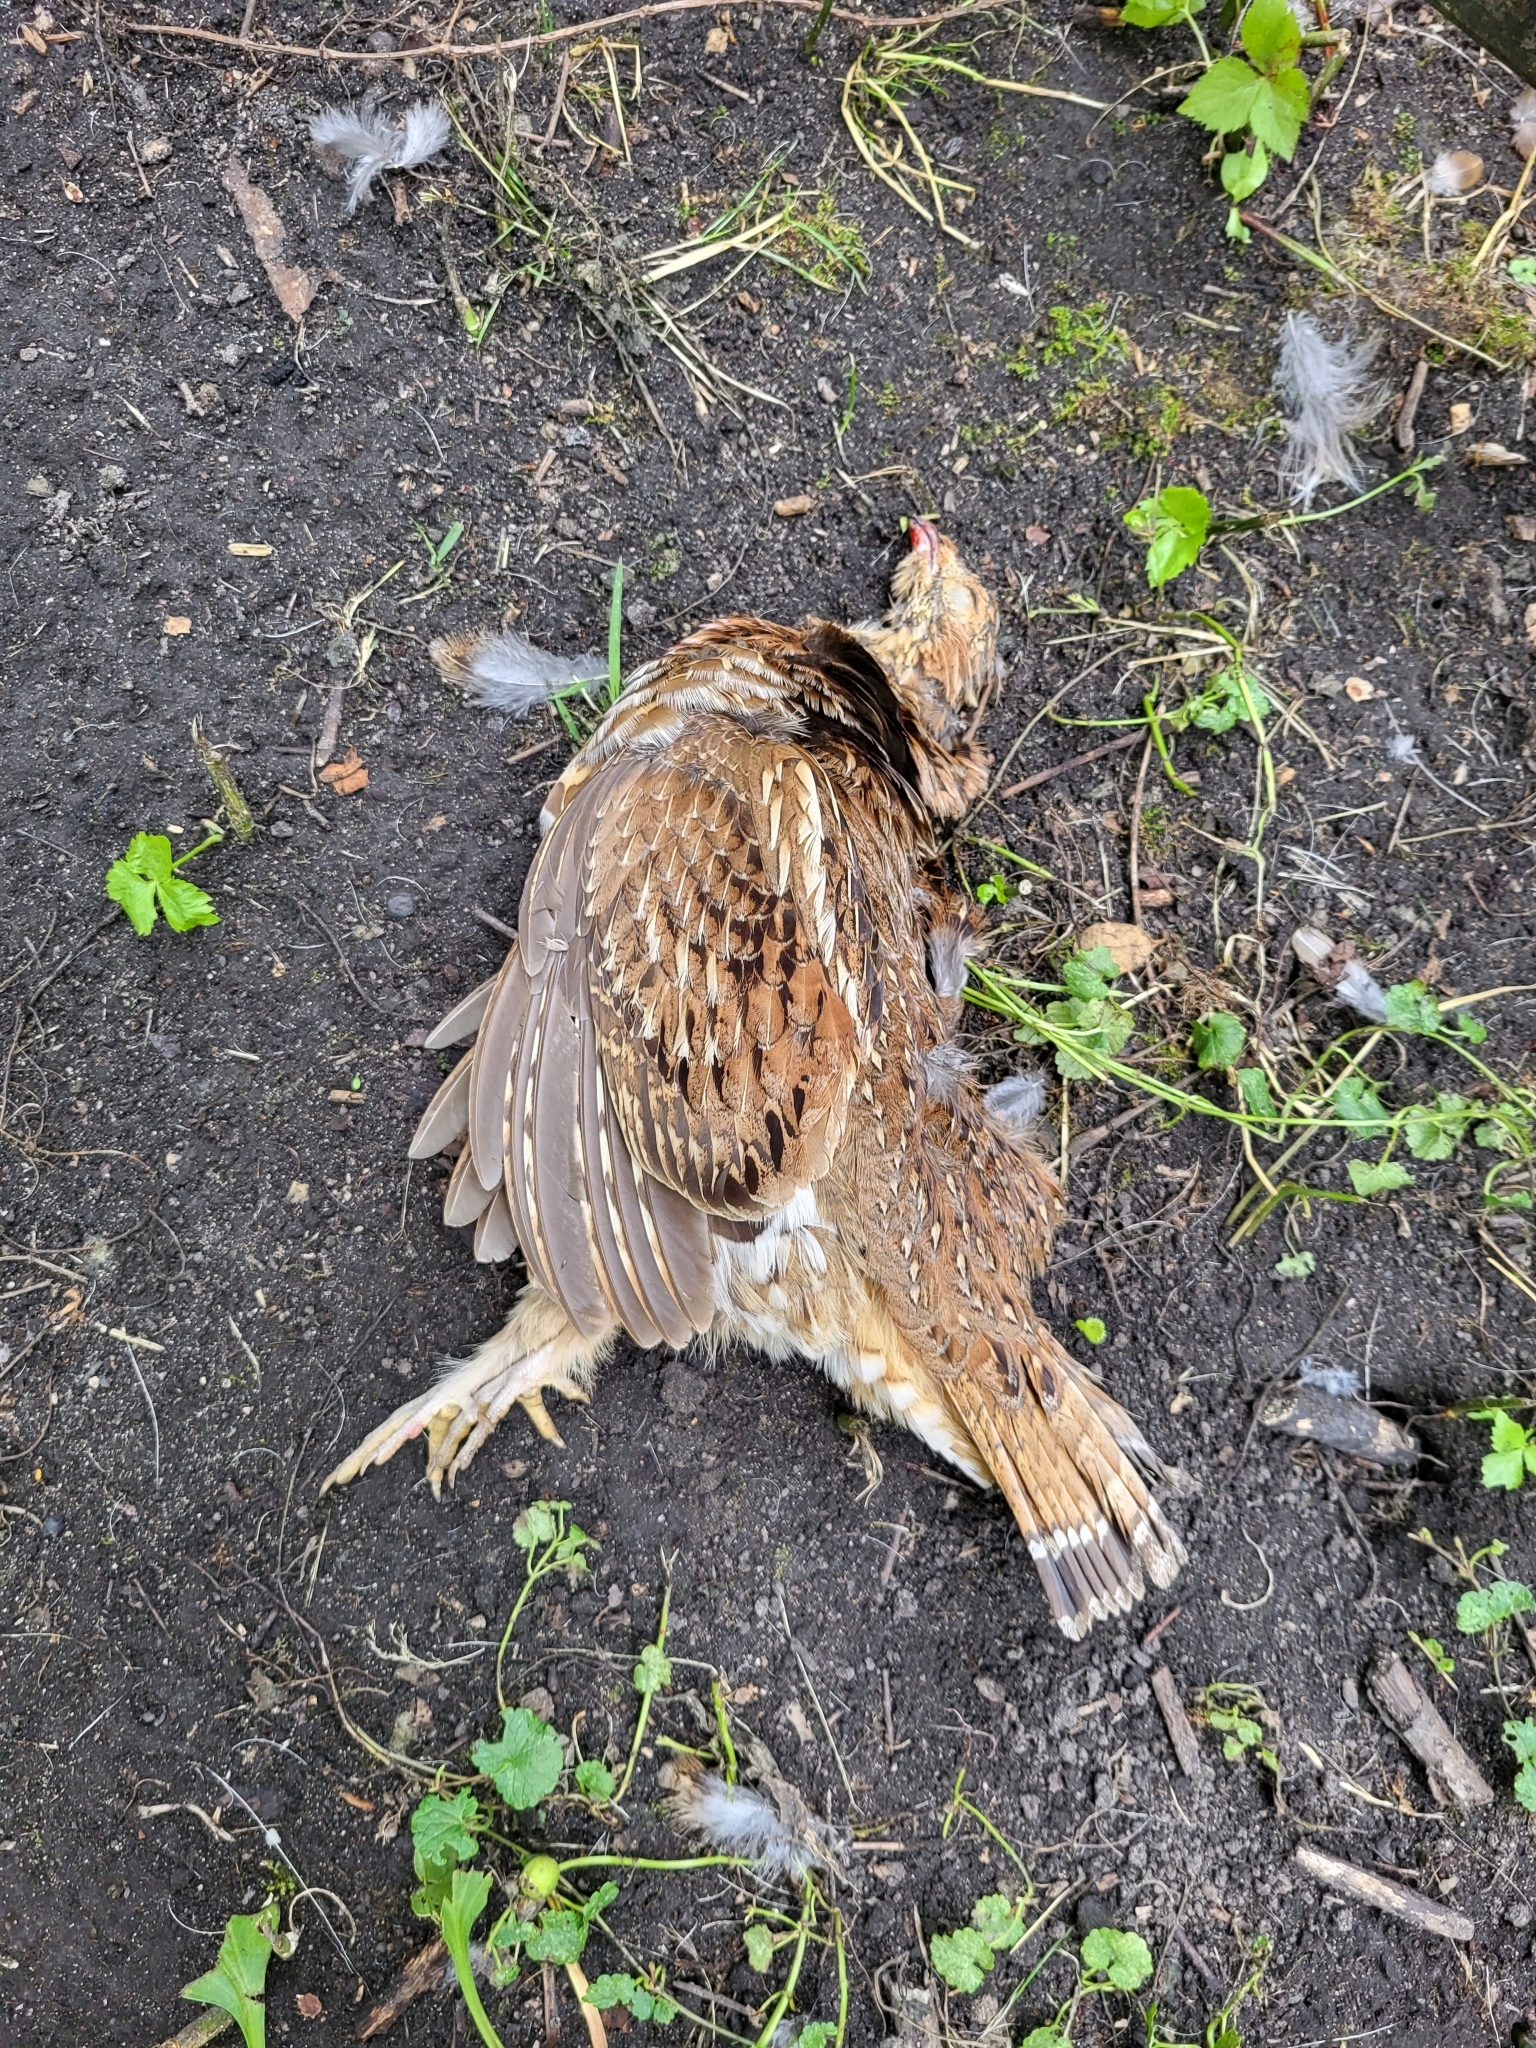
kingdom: Animalia
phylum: Chordata
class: Aves
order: Galliformes
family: Phasianidae
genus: Bonasa
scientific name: Bonasa umbellus
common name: Ruffed grouse
